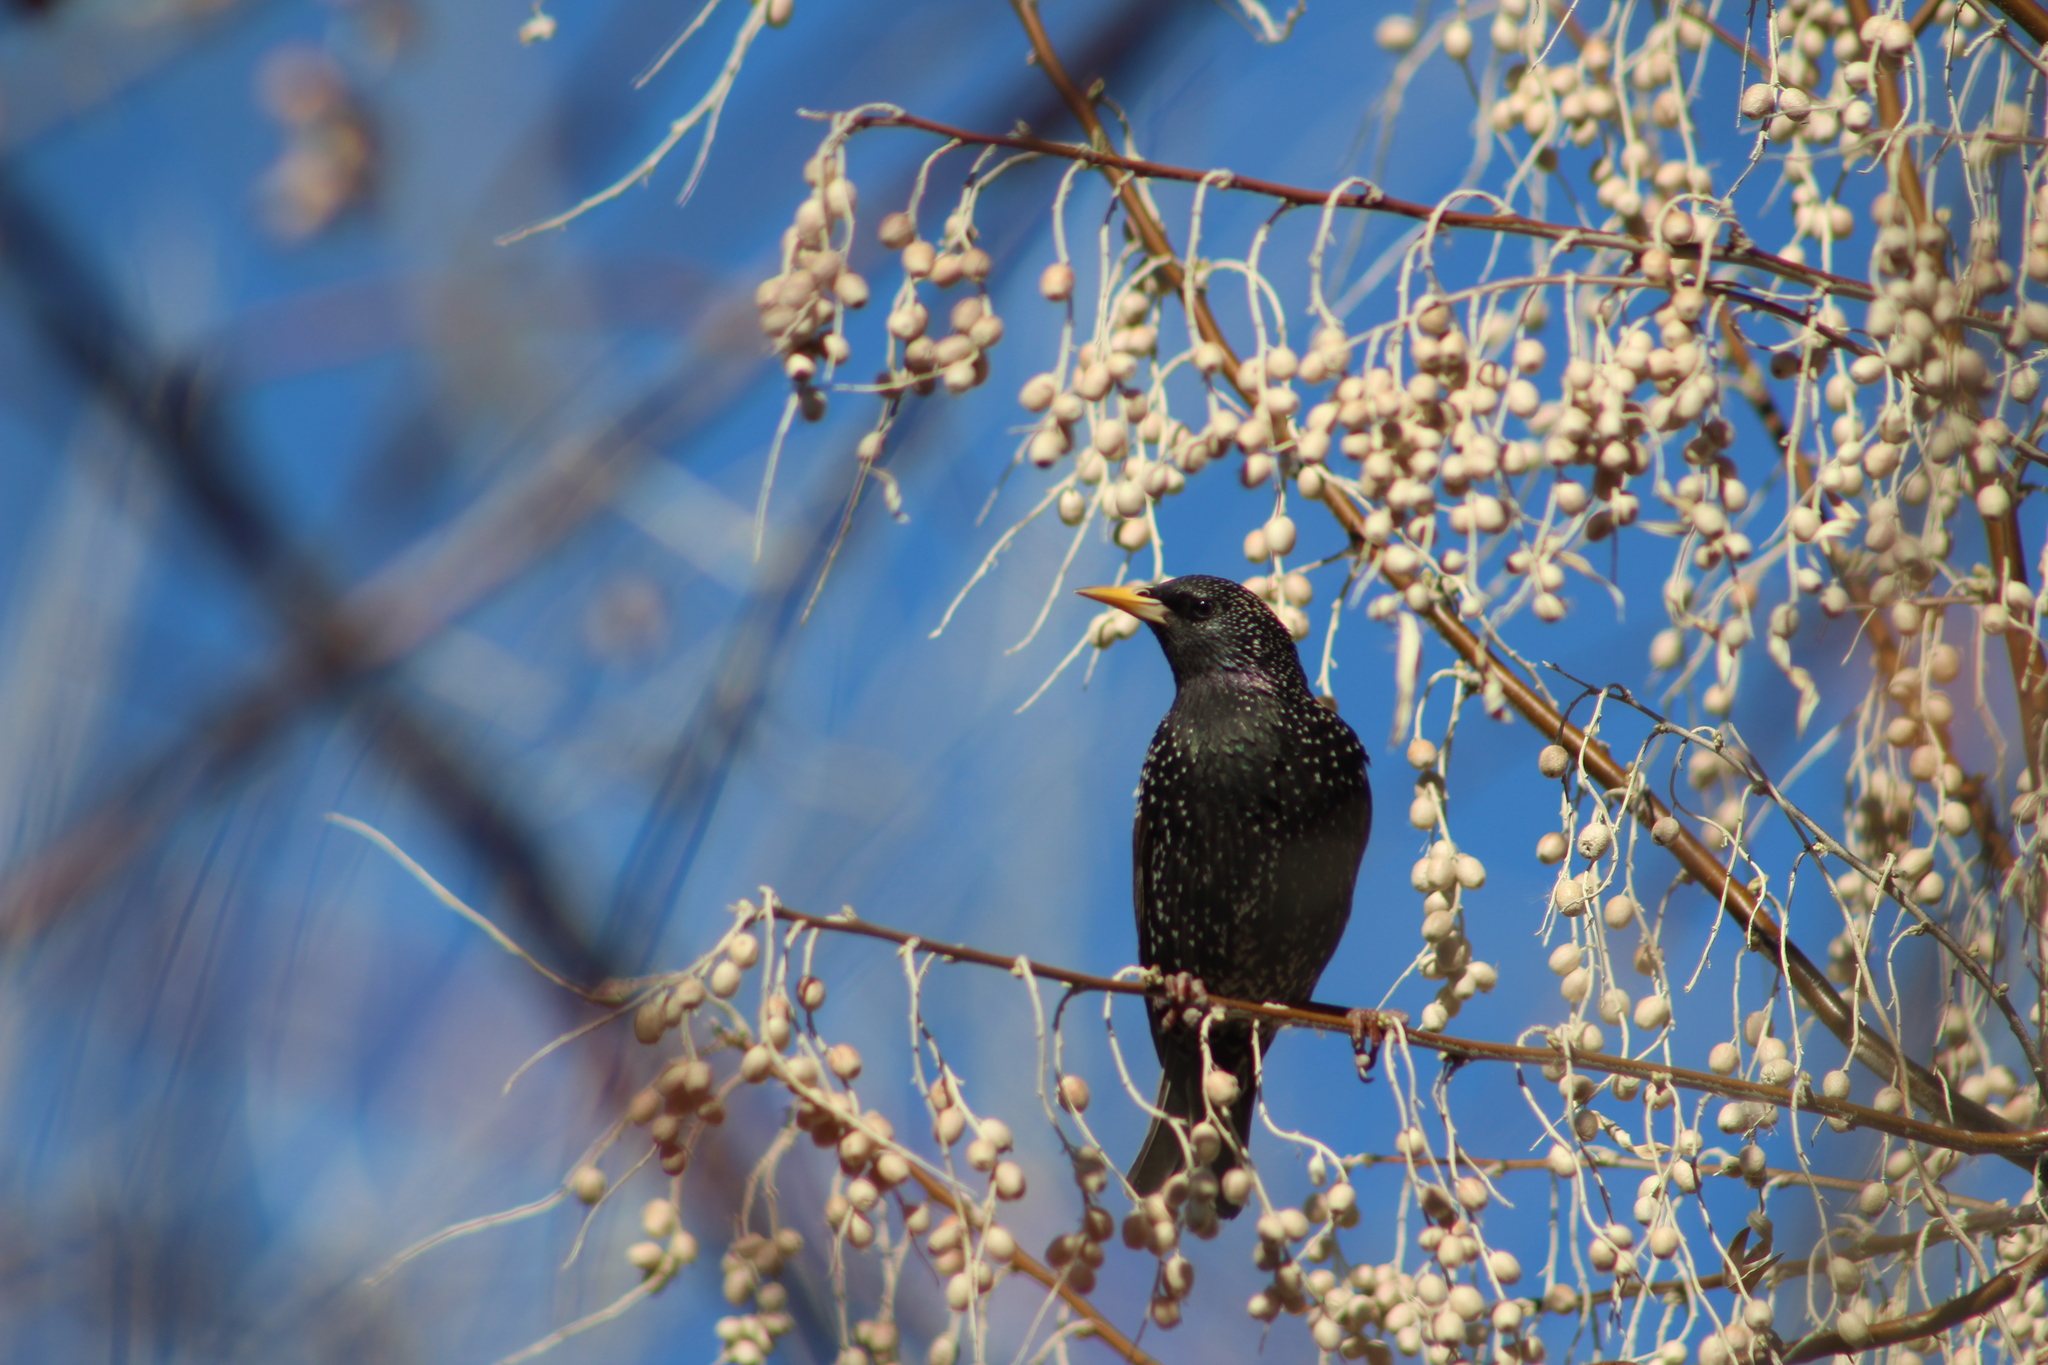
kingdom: Animalia
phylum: Chordata
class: Aves
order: Passeriformes
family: Sturnidae
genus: Sturnus
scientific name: Sturnus vulgaris
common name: Common starling
